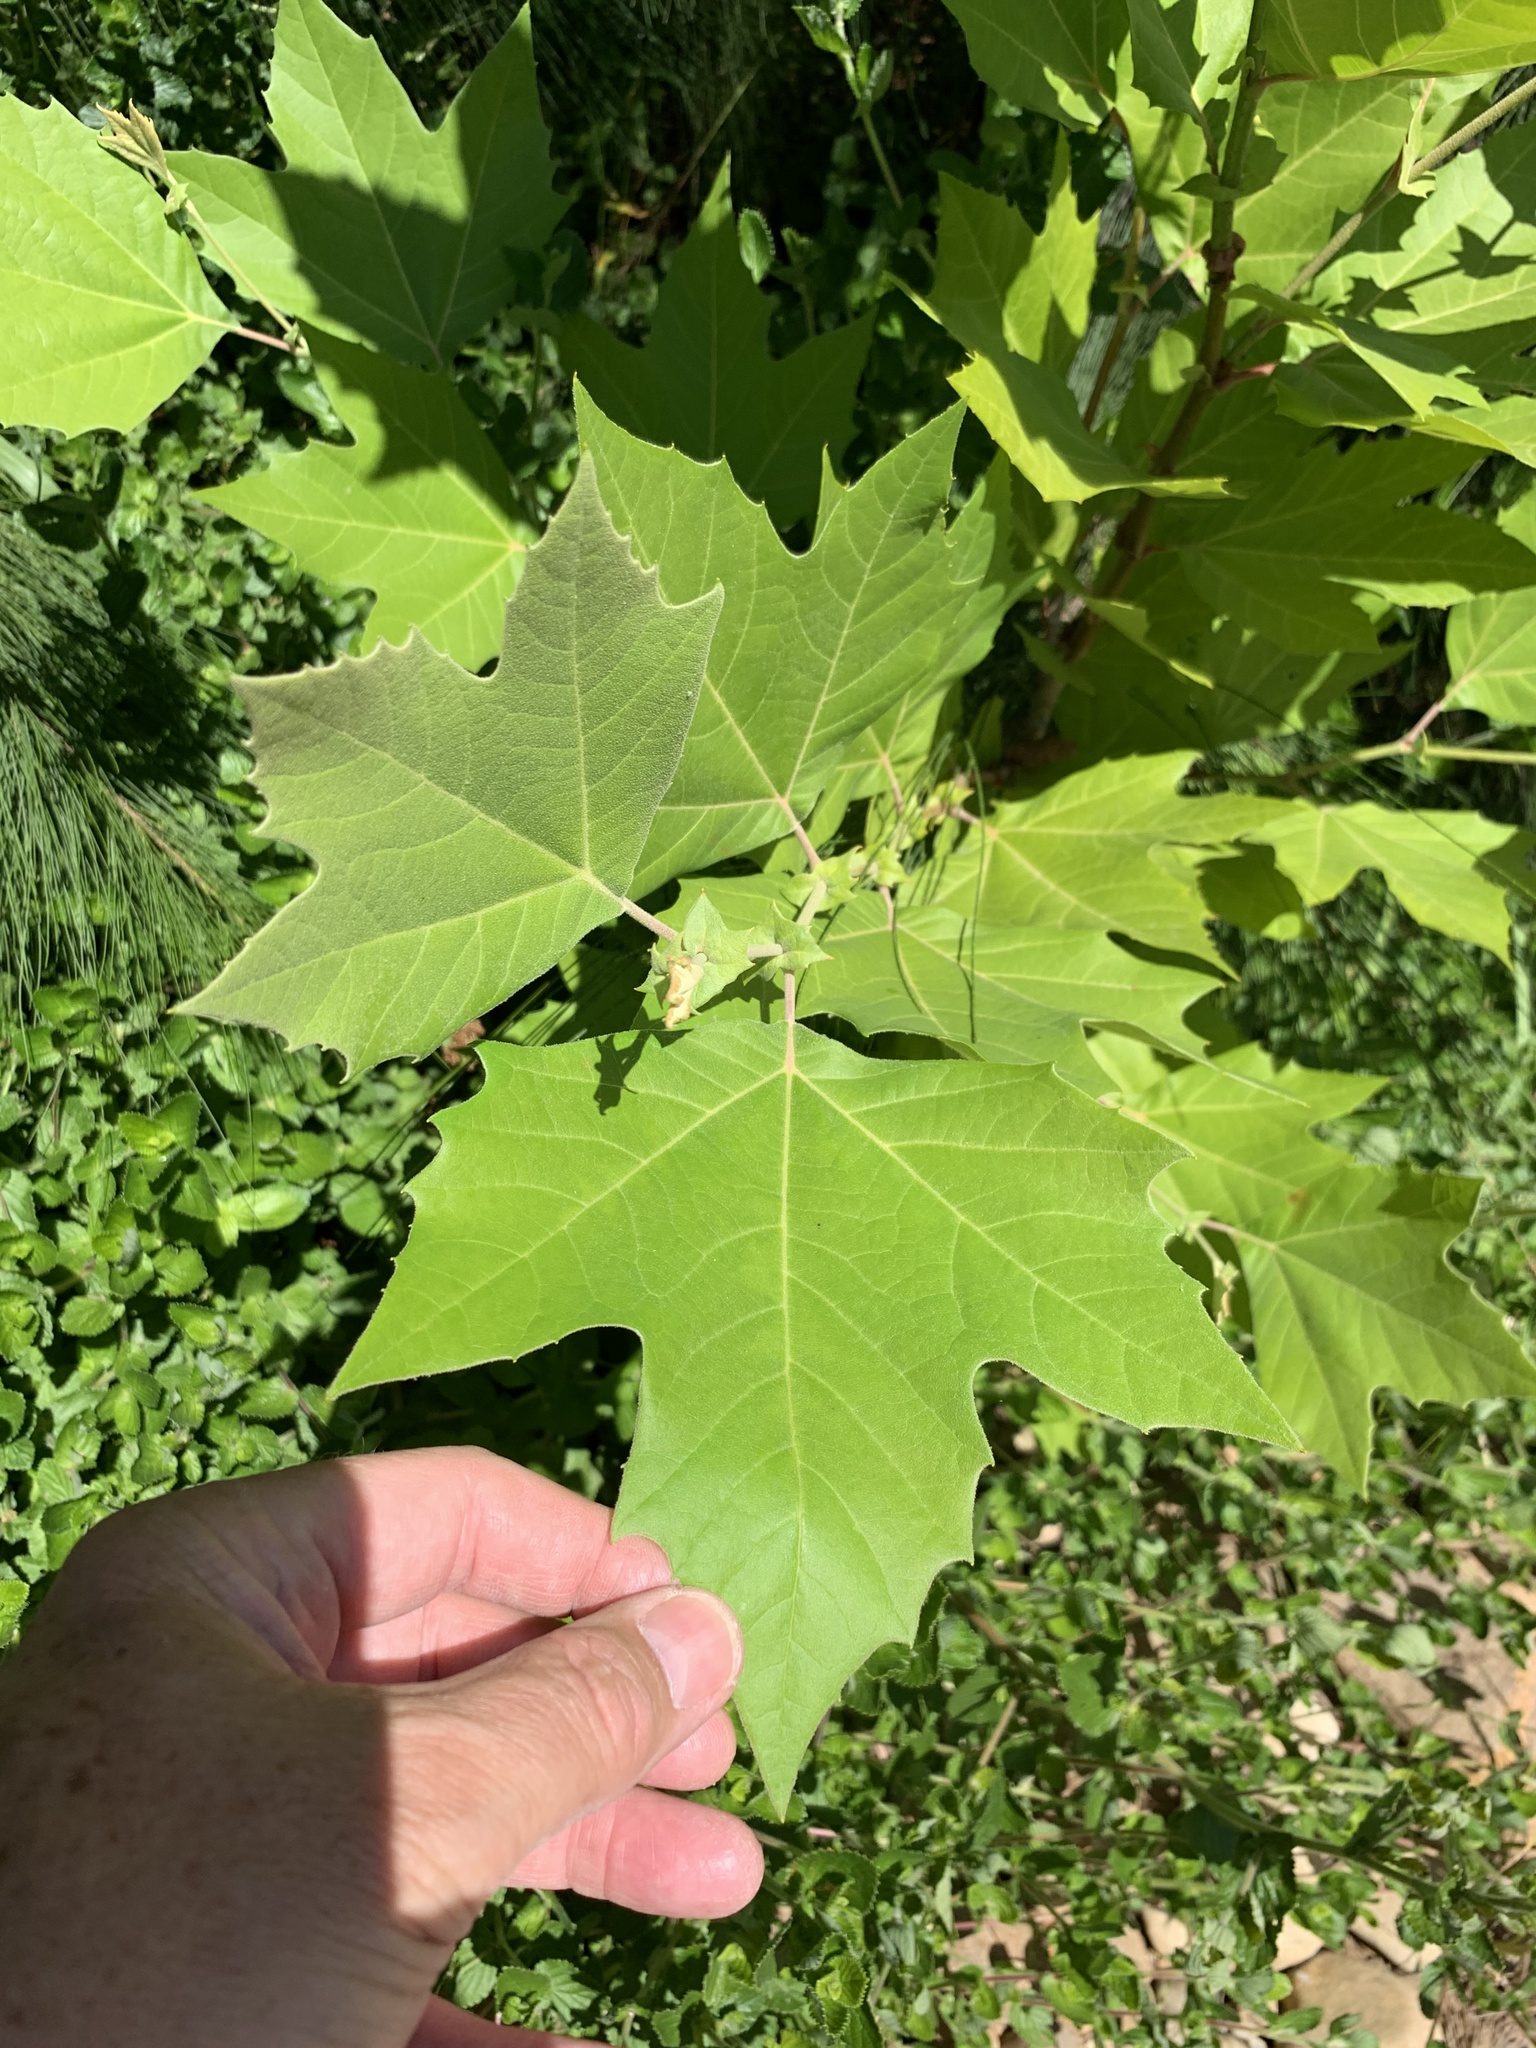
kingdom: Plantae
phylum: Tracheophyta
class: Magnoliopsida
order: Proteales
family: Platanaceae
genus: Platanus
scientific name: Platanus hispanica
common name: London plane
